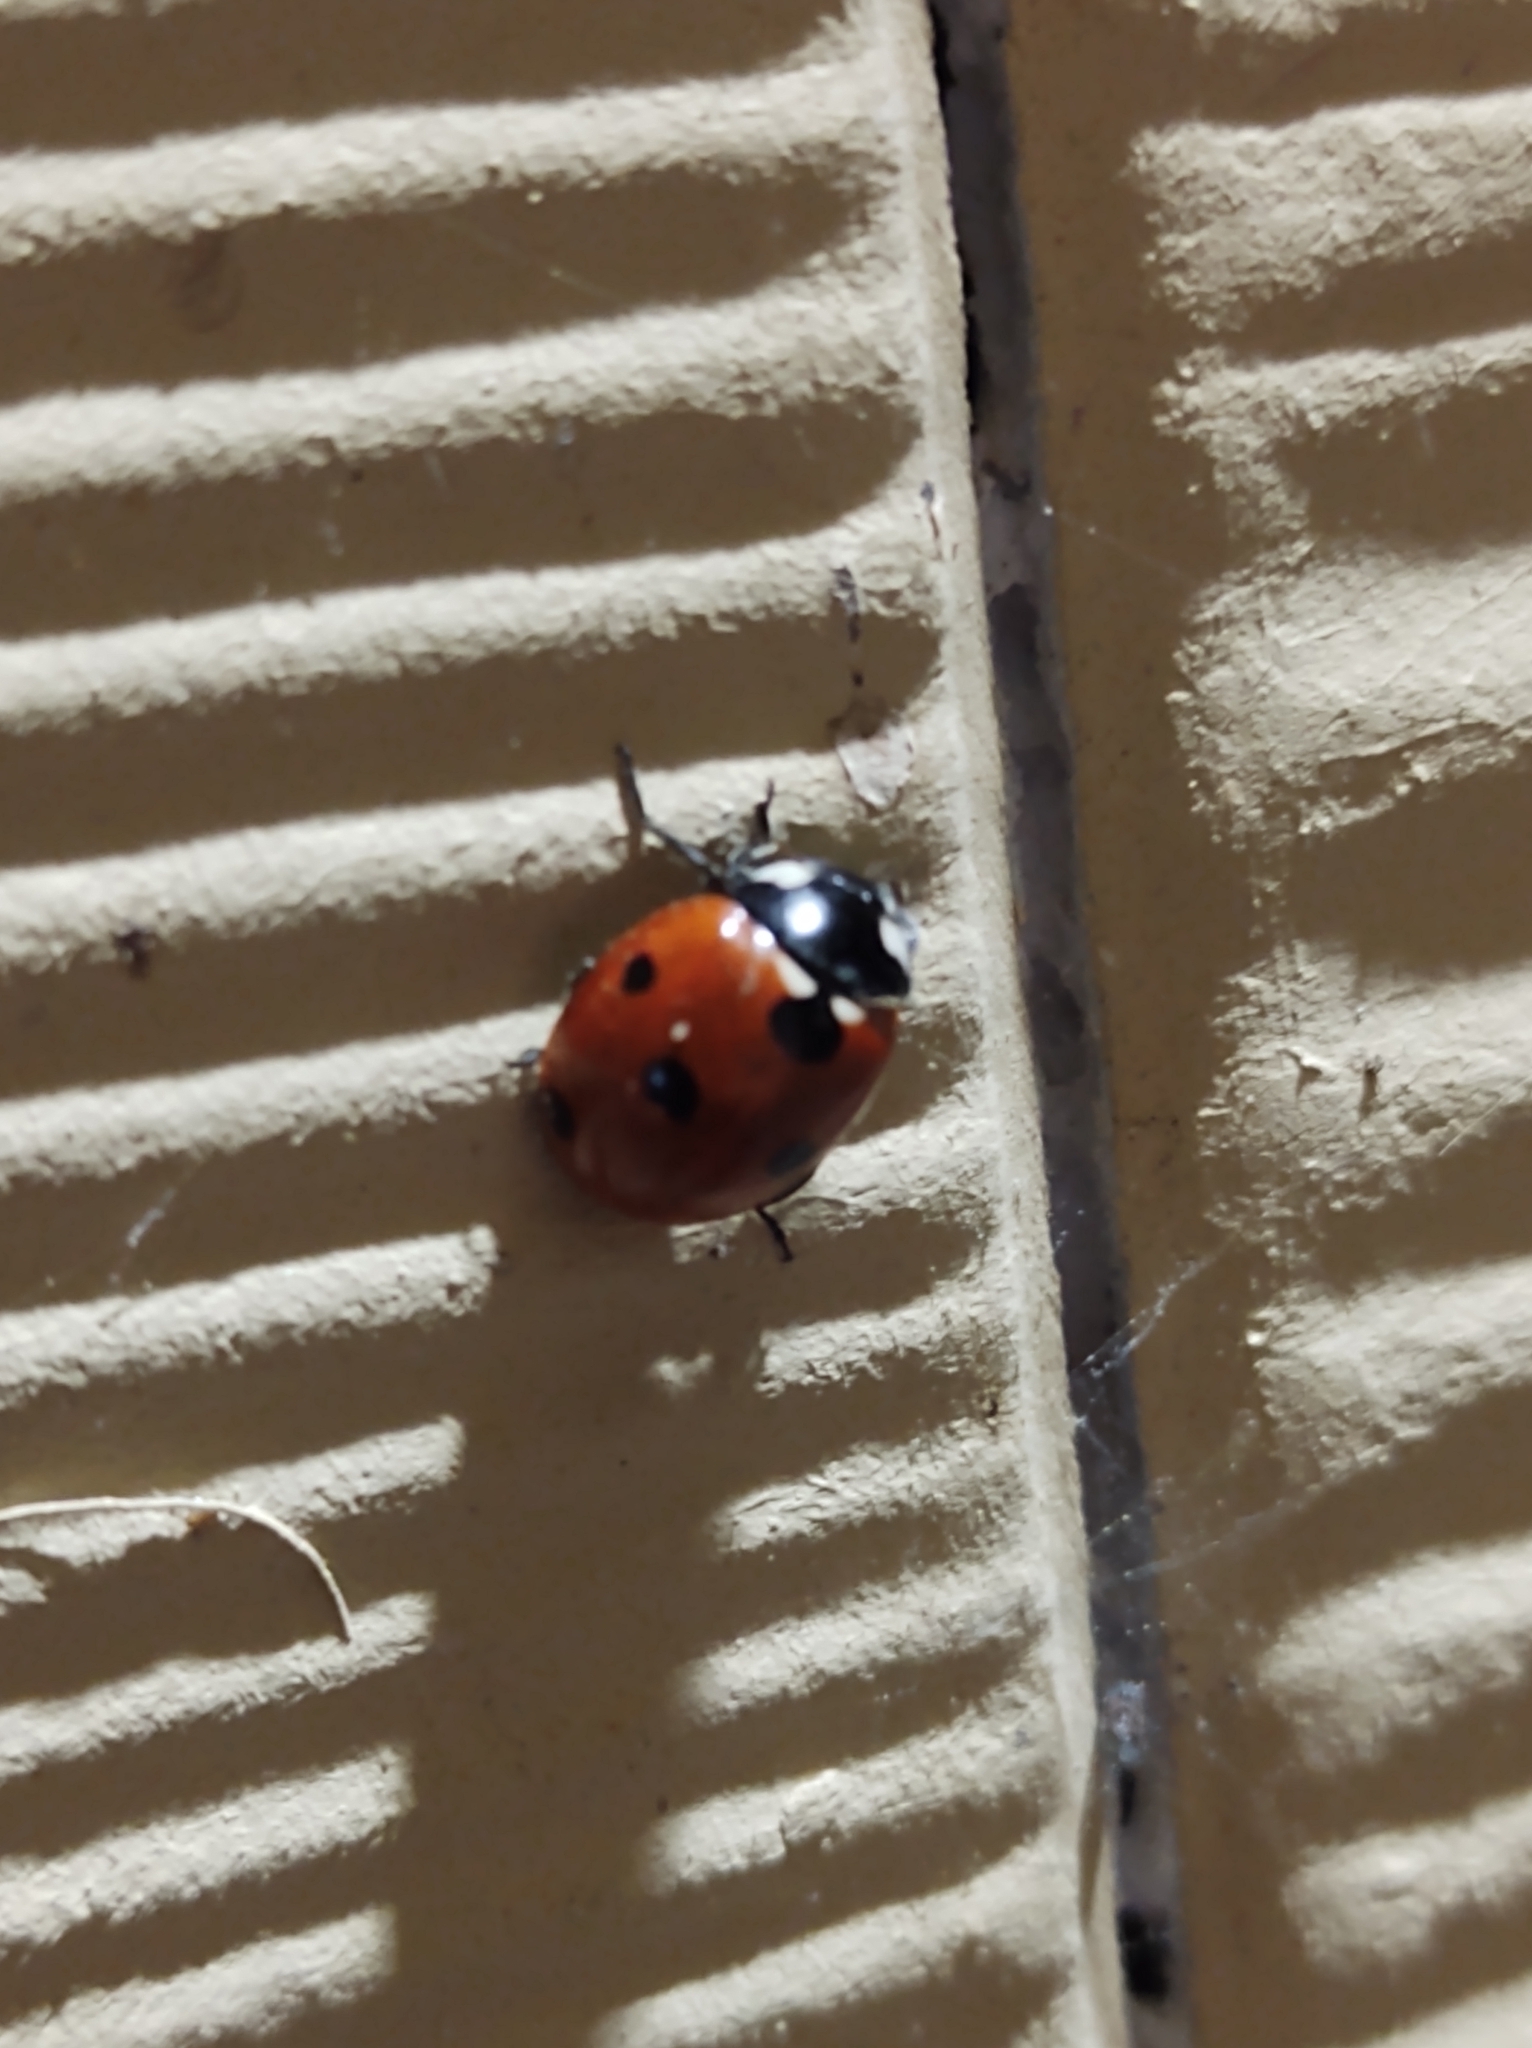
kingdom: Animalia
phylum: Arthropoda
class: Insecta
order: Coleoptera
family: Coccinellidae
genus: Coccinella
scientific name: Coccinella septempunctata
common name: Sevenspotted lady beetle
